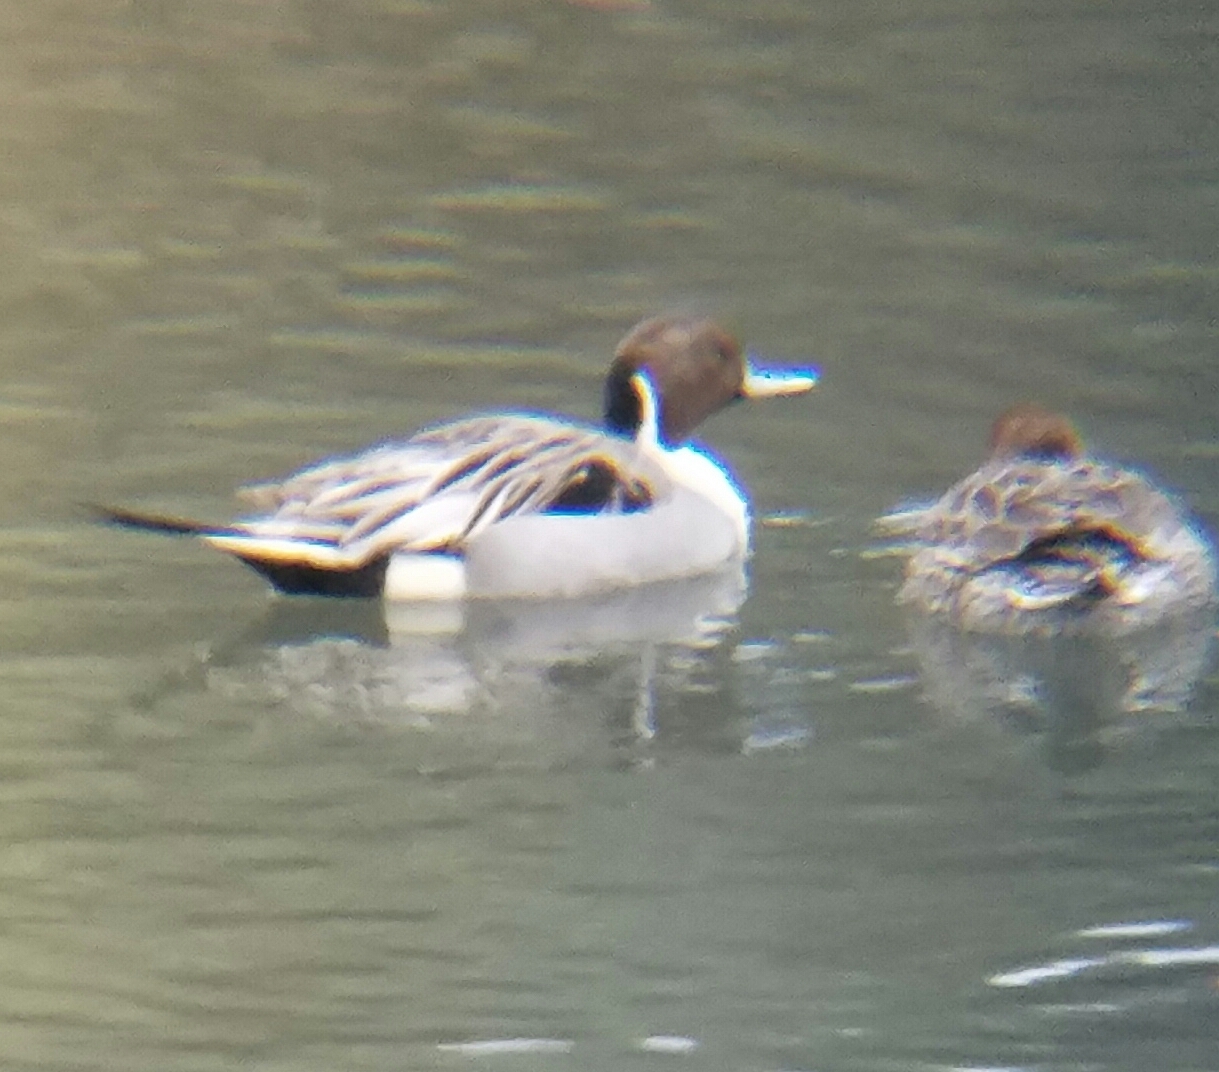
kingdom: Animalia
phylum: Chordata
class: Aves
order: Anseriformes
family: Anatidae
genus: Anas
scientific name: Anas acuta
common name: Northern pintail
